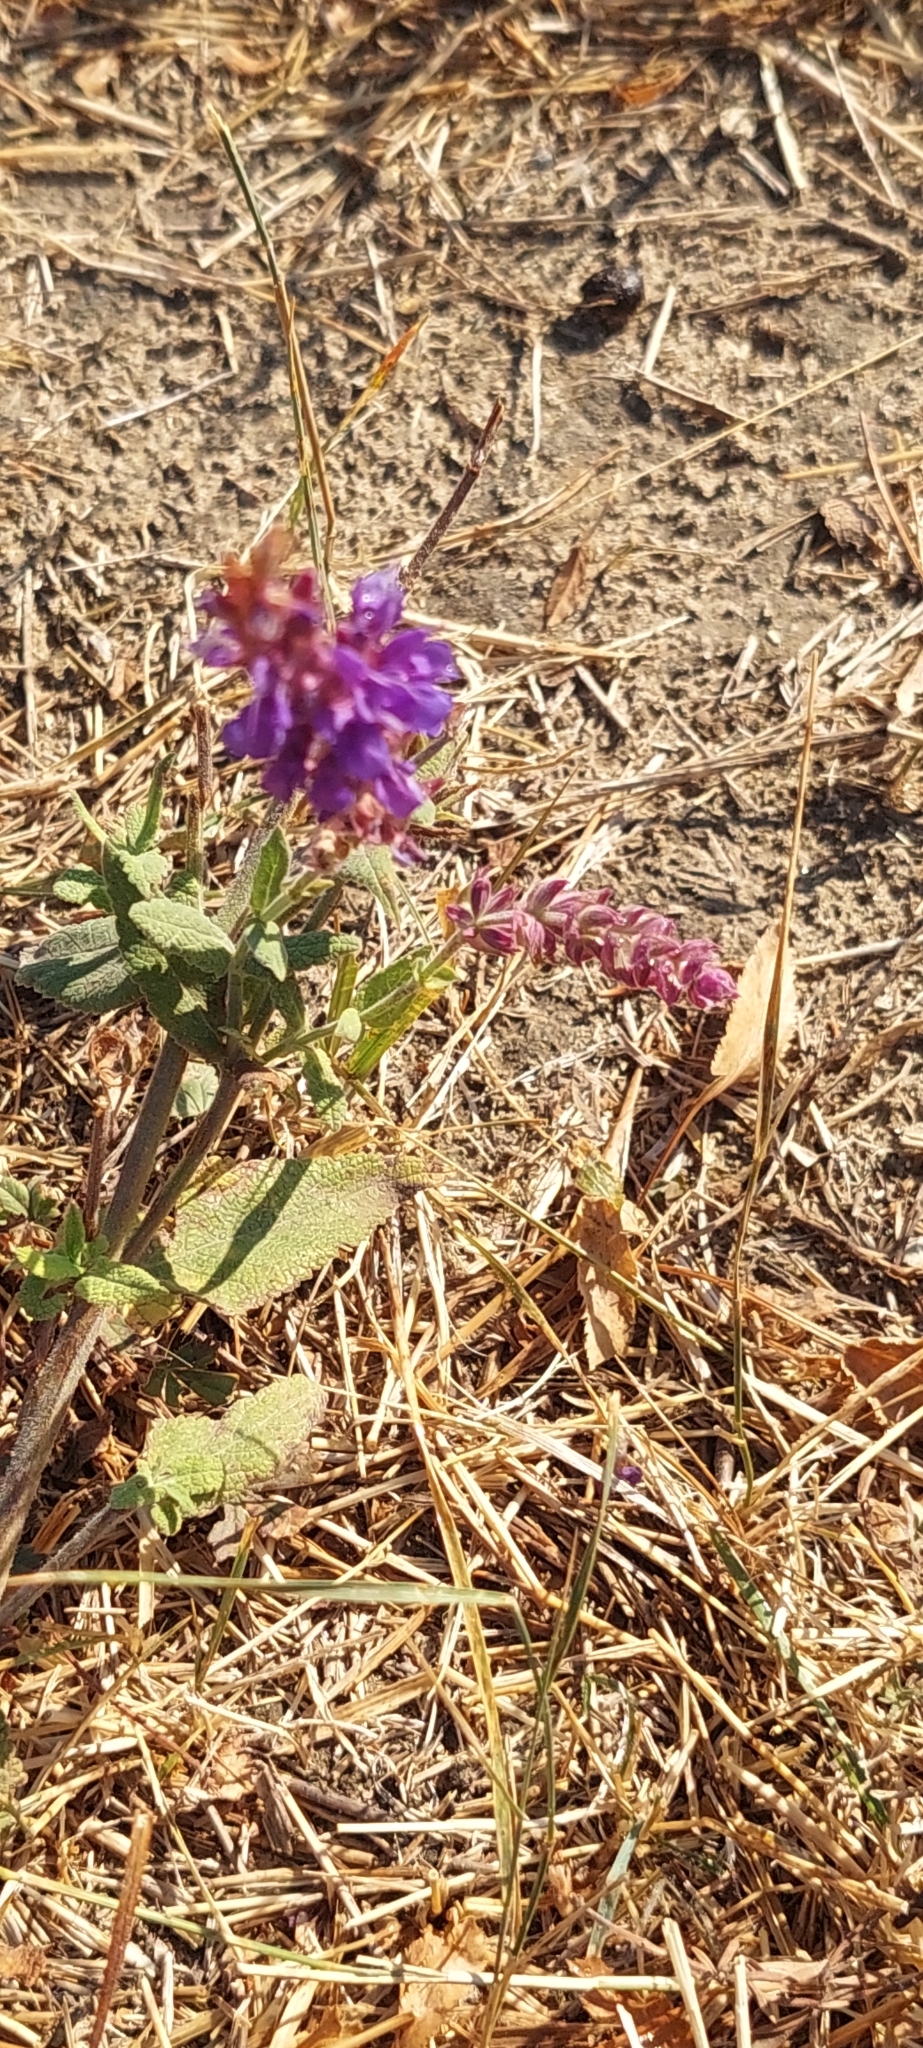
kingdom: Plantae
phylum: Tracheophyta
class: Magnoliopsida
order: Lamiales
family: Lamiaceae
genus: Salvia
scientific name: Salvia nemorosa
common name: Balkan clary
